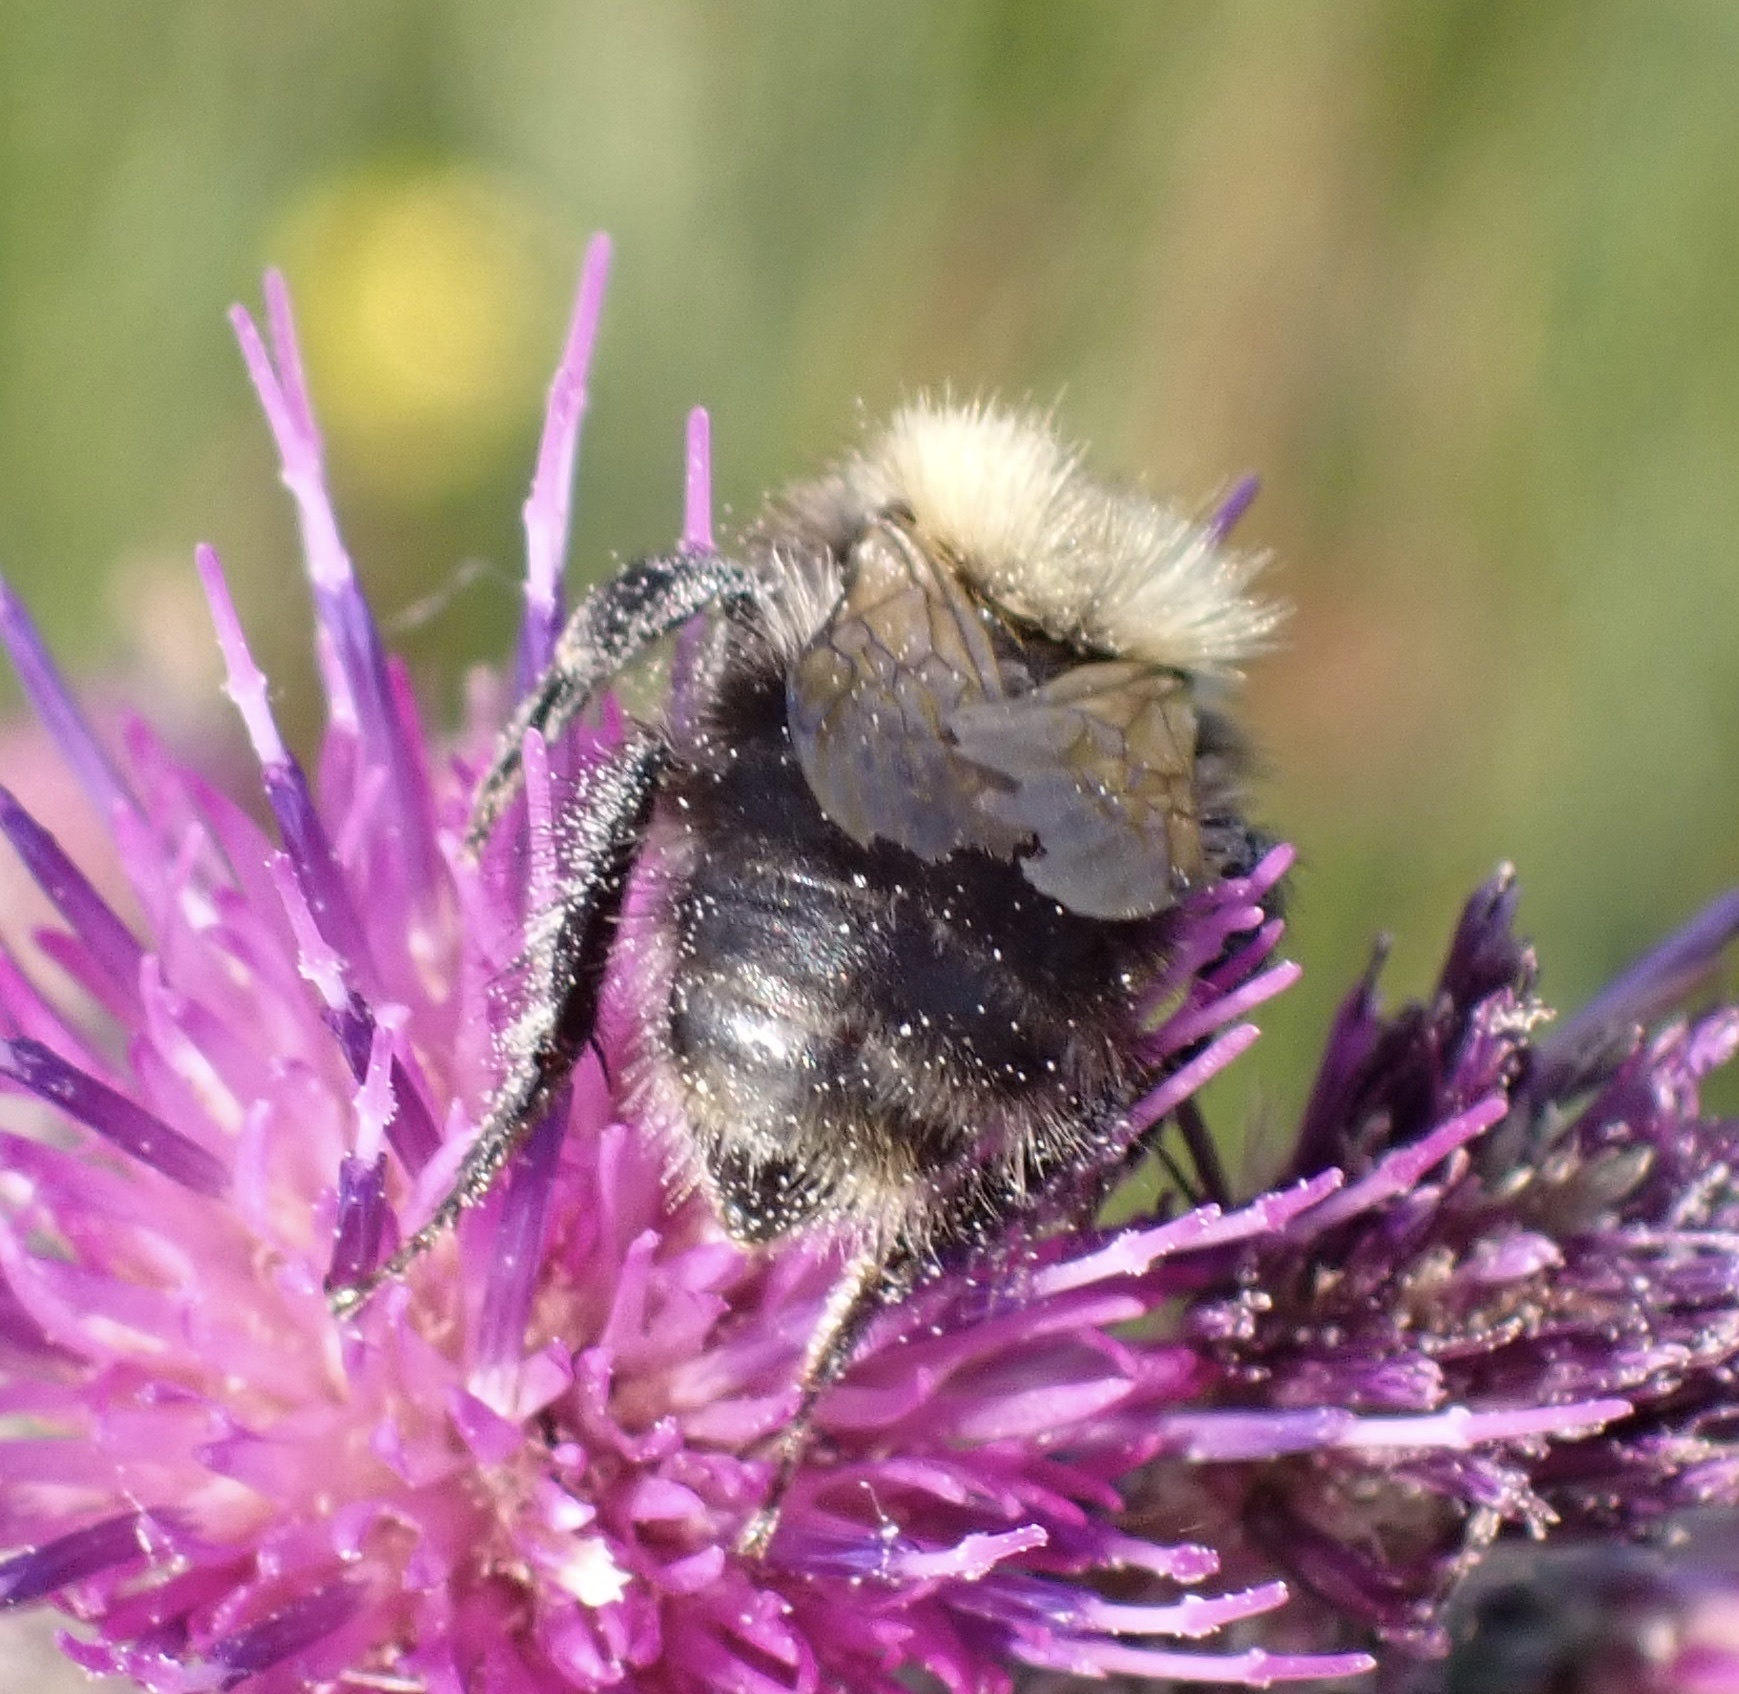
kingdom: Animalia
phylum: Arthropoda
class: Insecta
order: Hymenoptera
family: Apidae
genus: Bombus
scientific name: Bombus pascuorum
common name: Common carder bee
